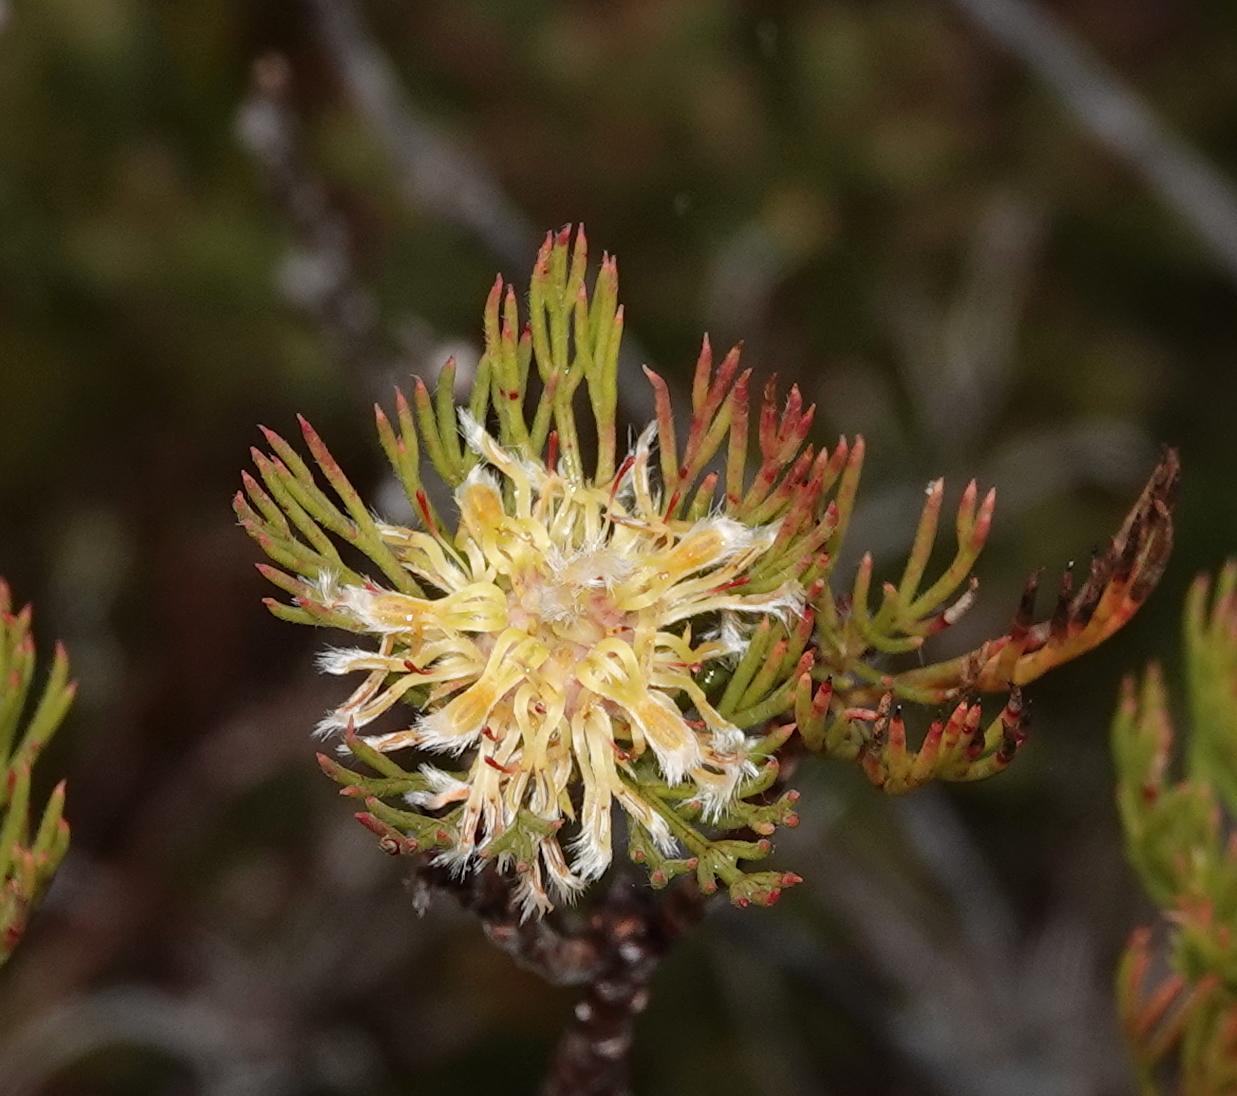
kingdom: Plantae
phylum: Tracheophyta
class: Magnoliopsida
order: Proteales
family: Proteaceae
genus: Serruria
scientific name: Serruria villosa
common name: Golden spiderhead
